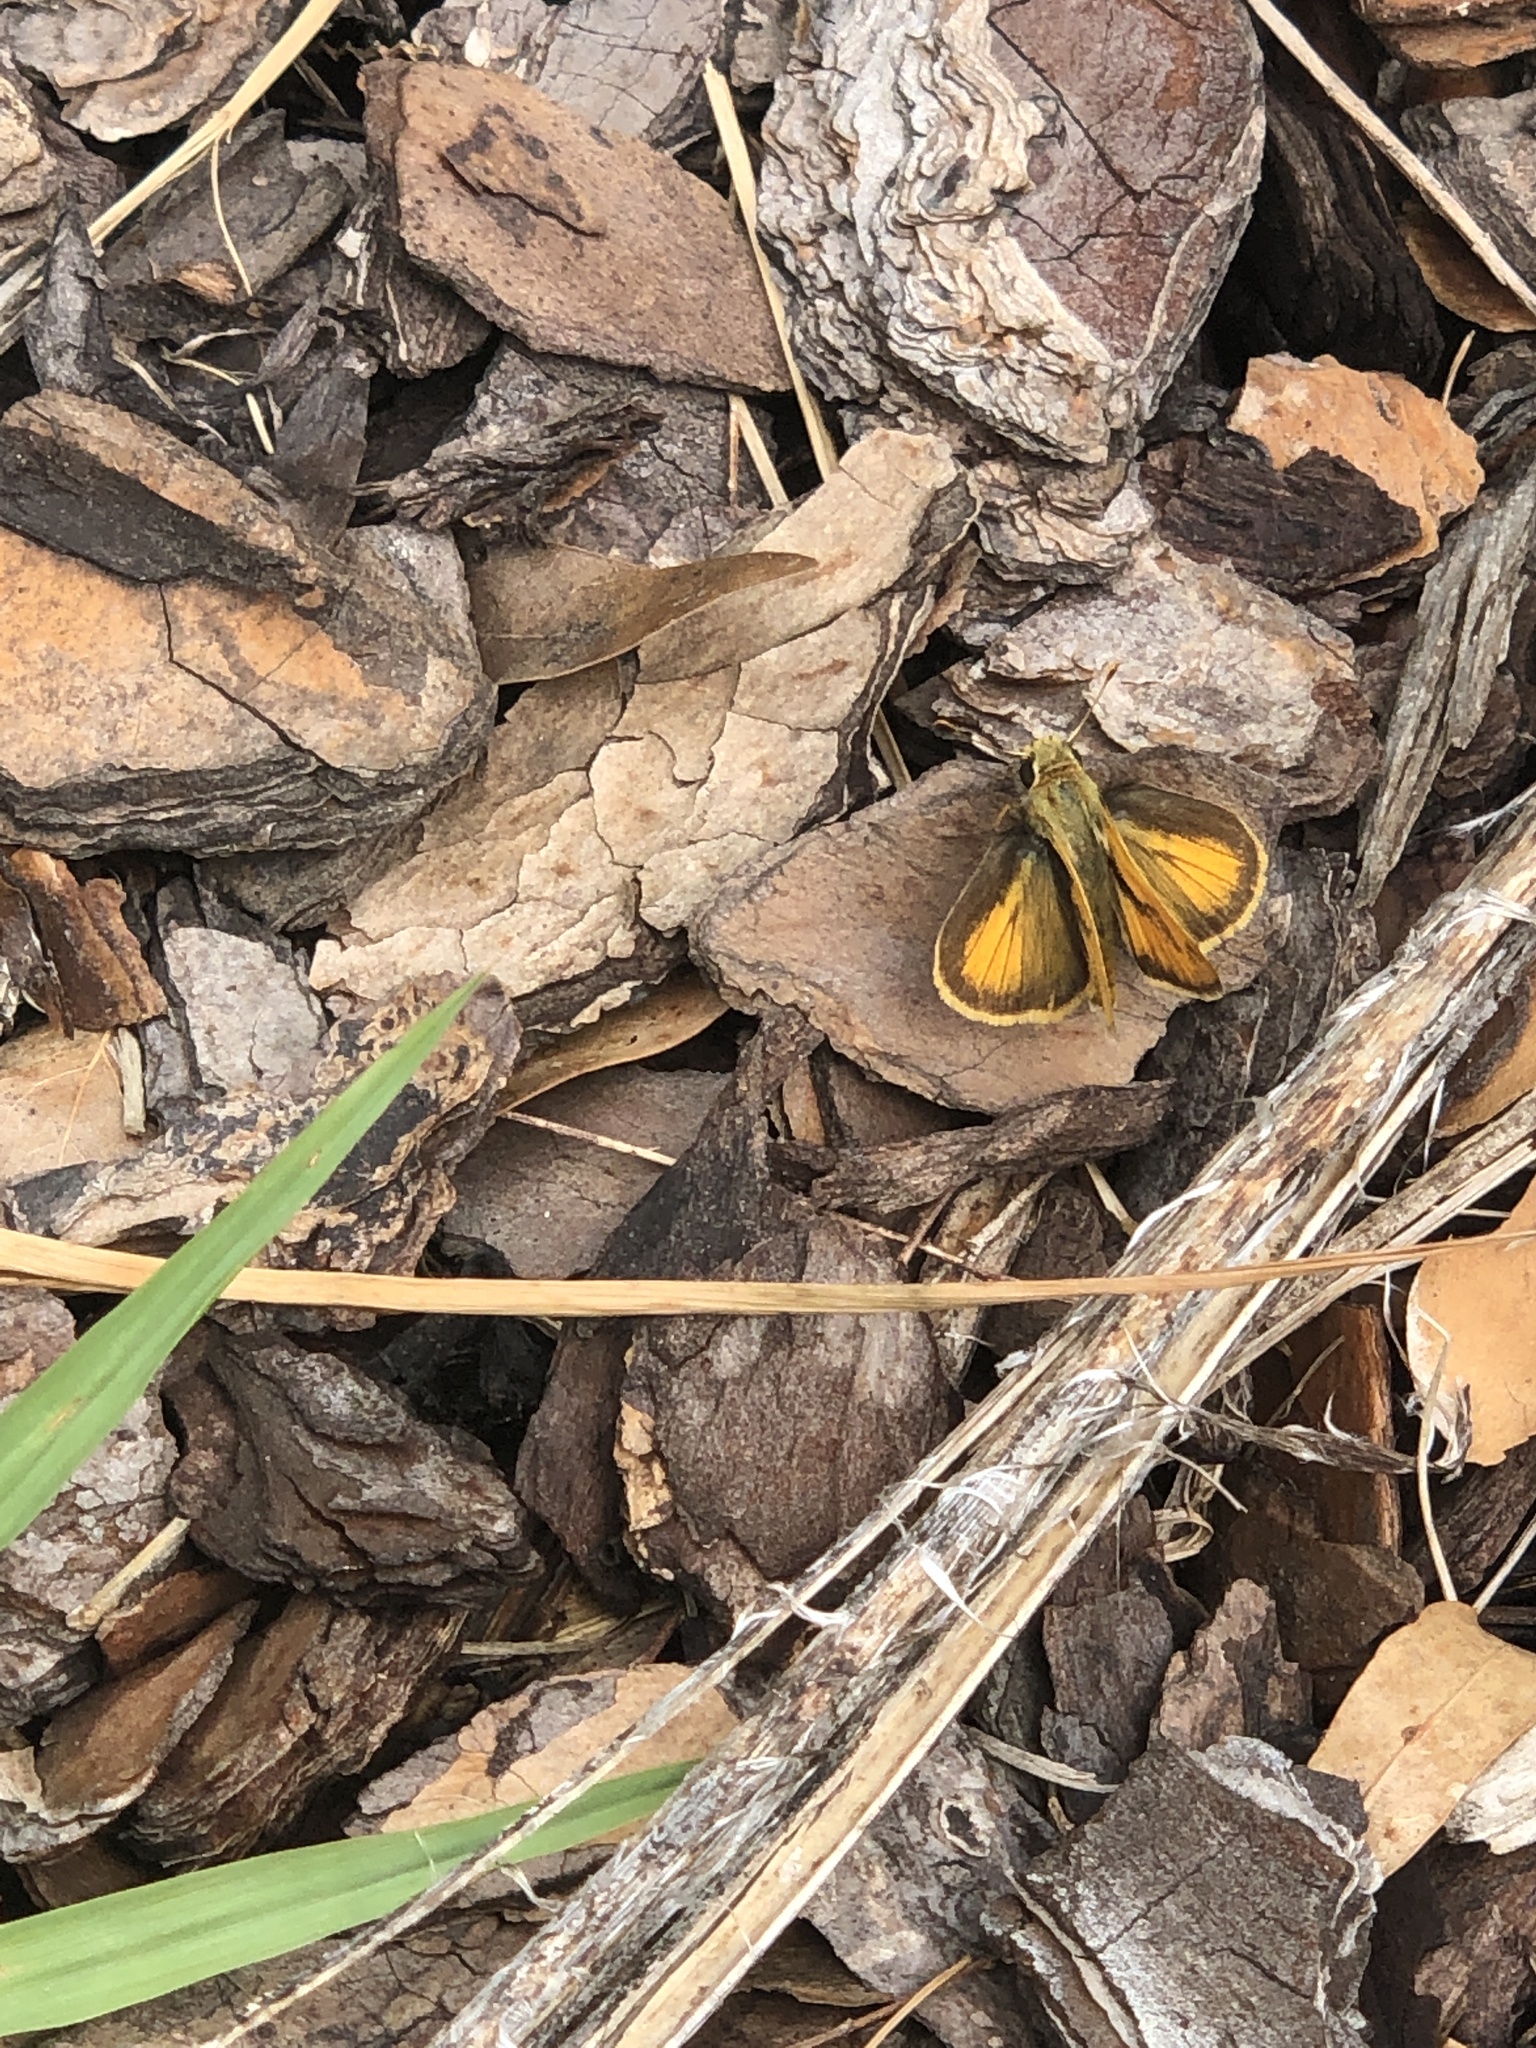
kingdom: Animalia
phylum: Arthropoda
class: Insecta
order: Lepidoptera
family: Hesperiidae
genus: Polites
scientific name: Polites vibex
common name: Whirlabout
